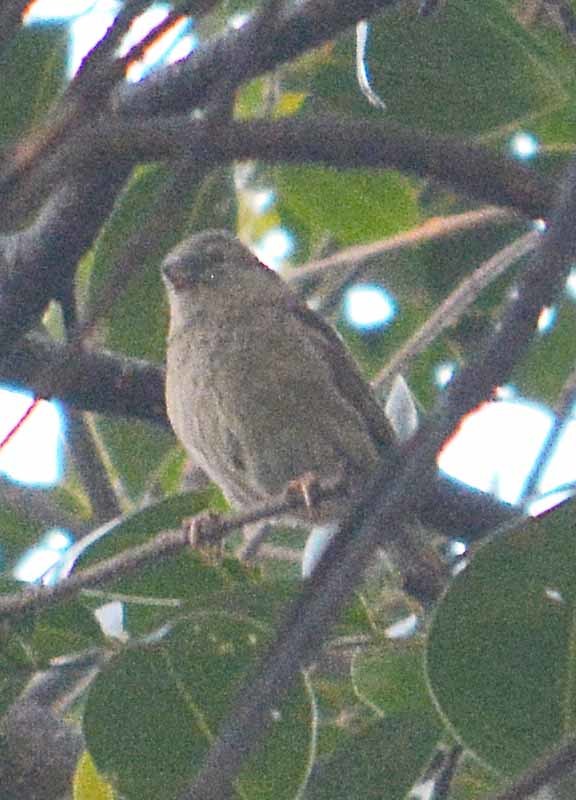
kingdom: Animalia
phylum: Chordata
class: Aves
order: Passeriformes
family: Passeridae
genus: Passer
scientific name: Passer domesticus
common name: House sparrow
